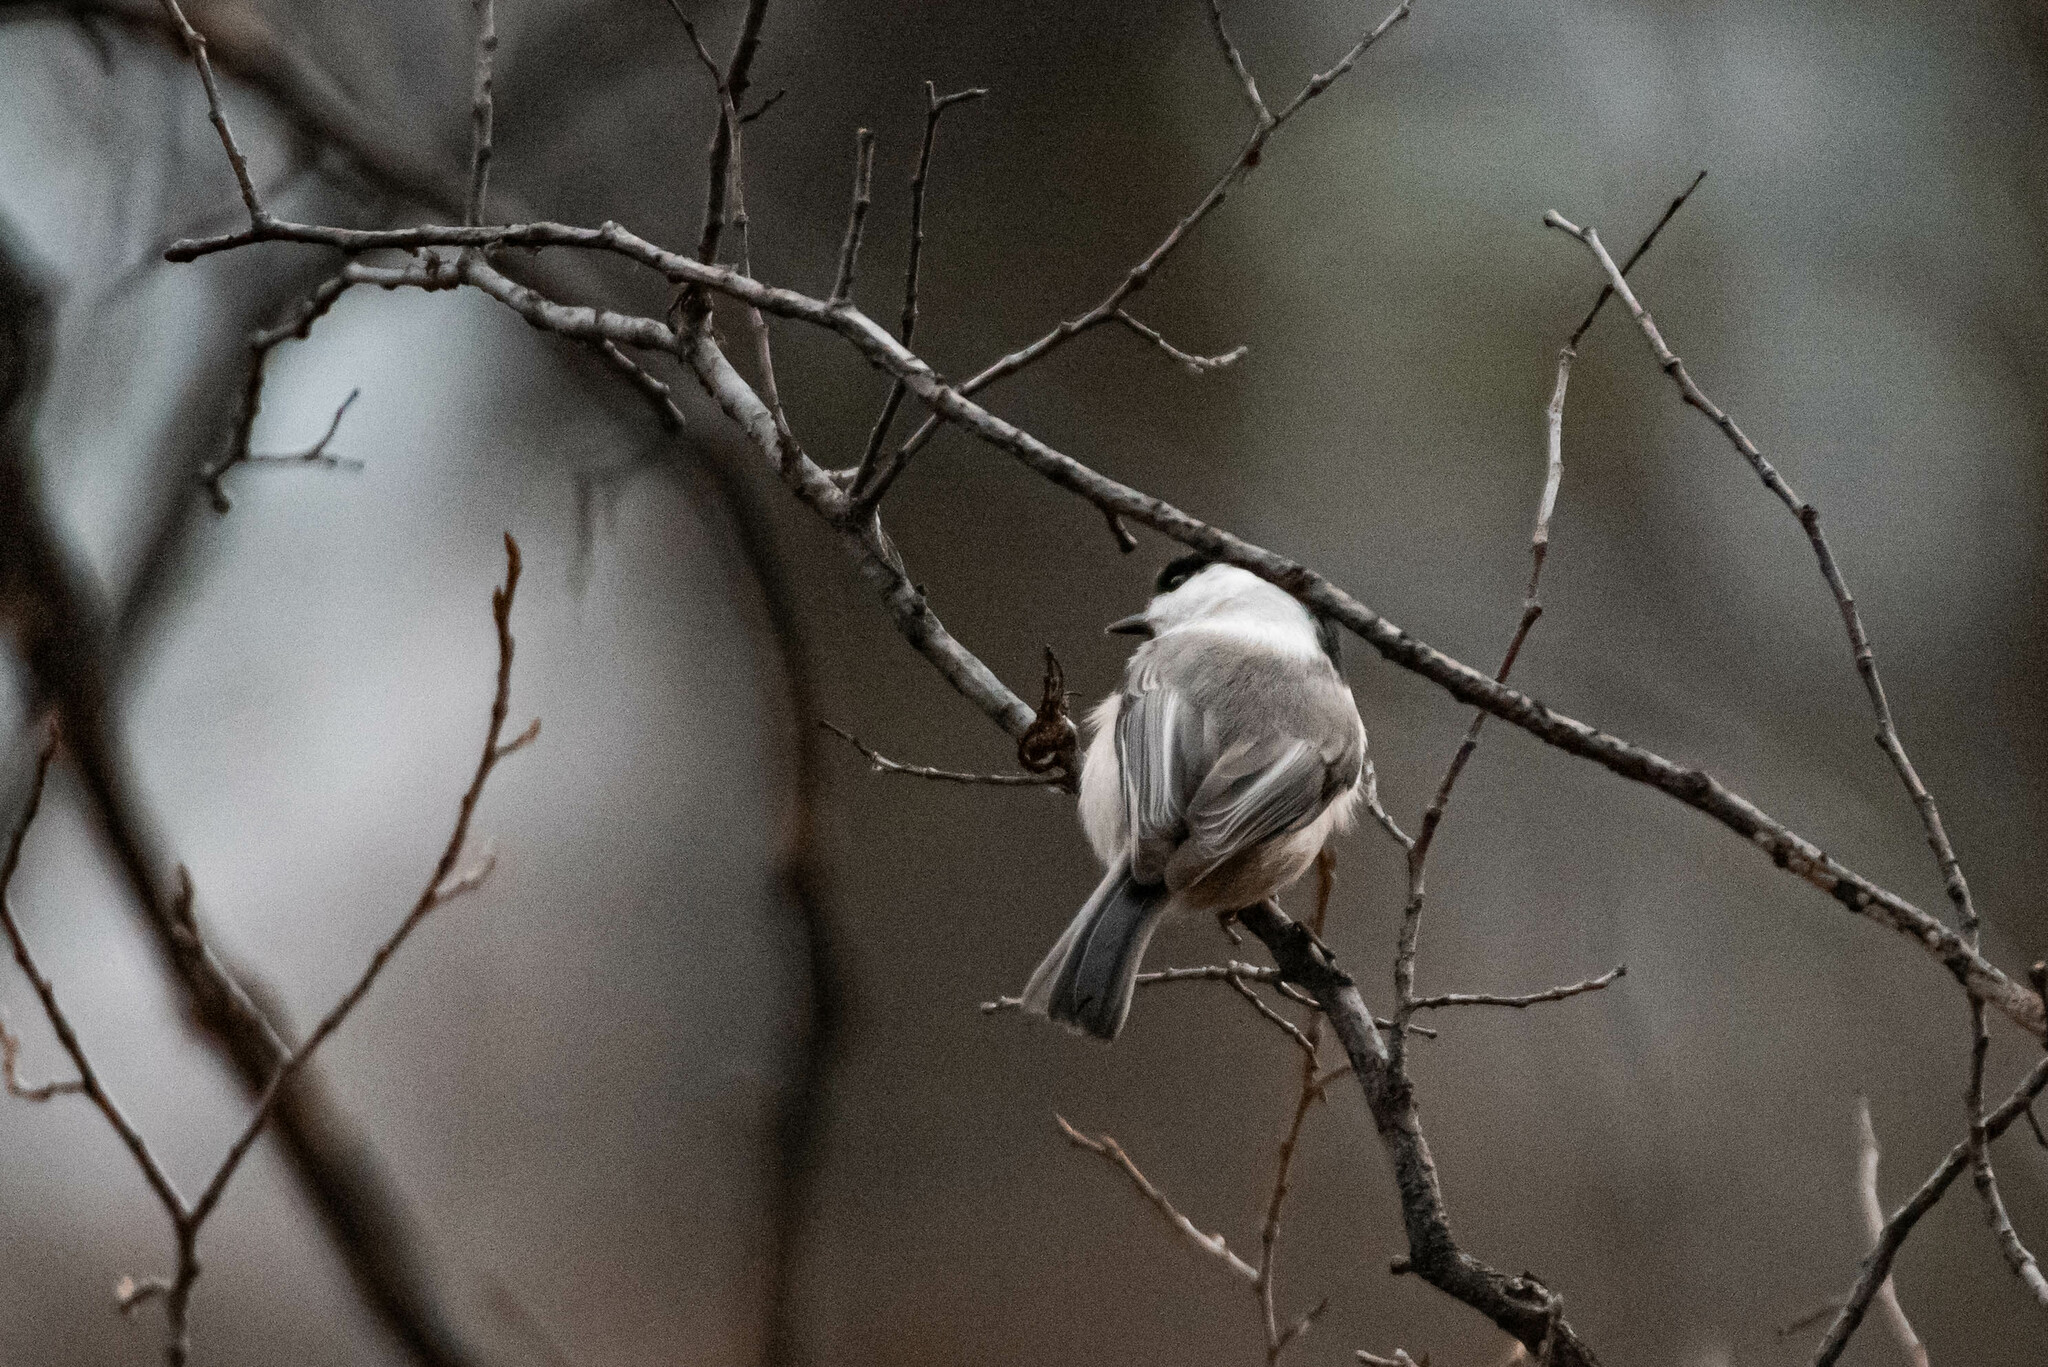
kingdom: Animalia
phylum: Chordata
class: Aves
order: Passeriformes
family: Paridae
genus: Poecile
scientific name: Poecile montanus
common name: Willow tit
